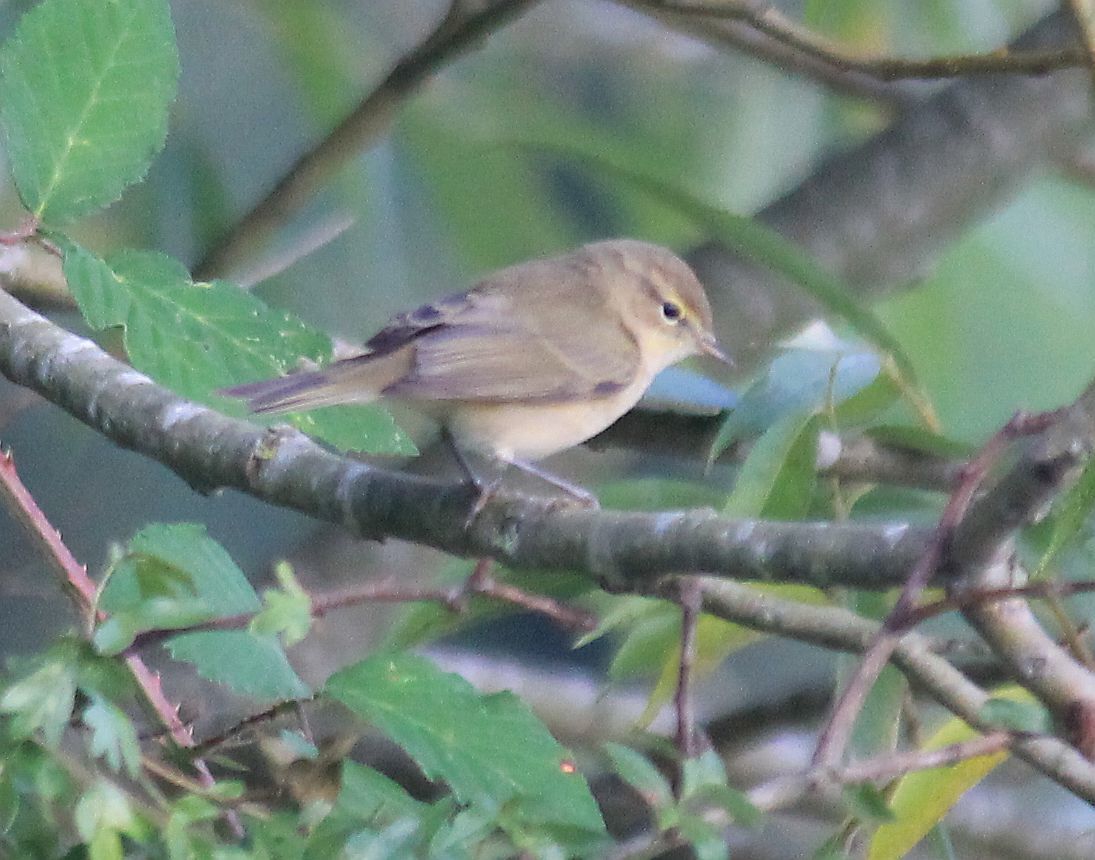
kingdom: Animalia
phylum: Chordata
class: Aves
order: Passeriformes
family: Phylloscopidae
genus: Phylloscopus
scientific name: Phylloscopus collybita
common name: Common chiffchaff
